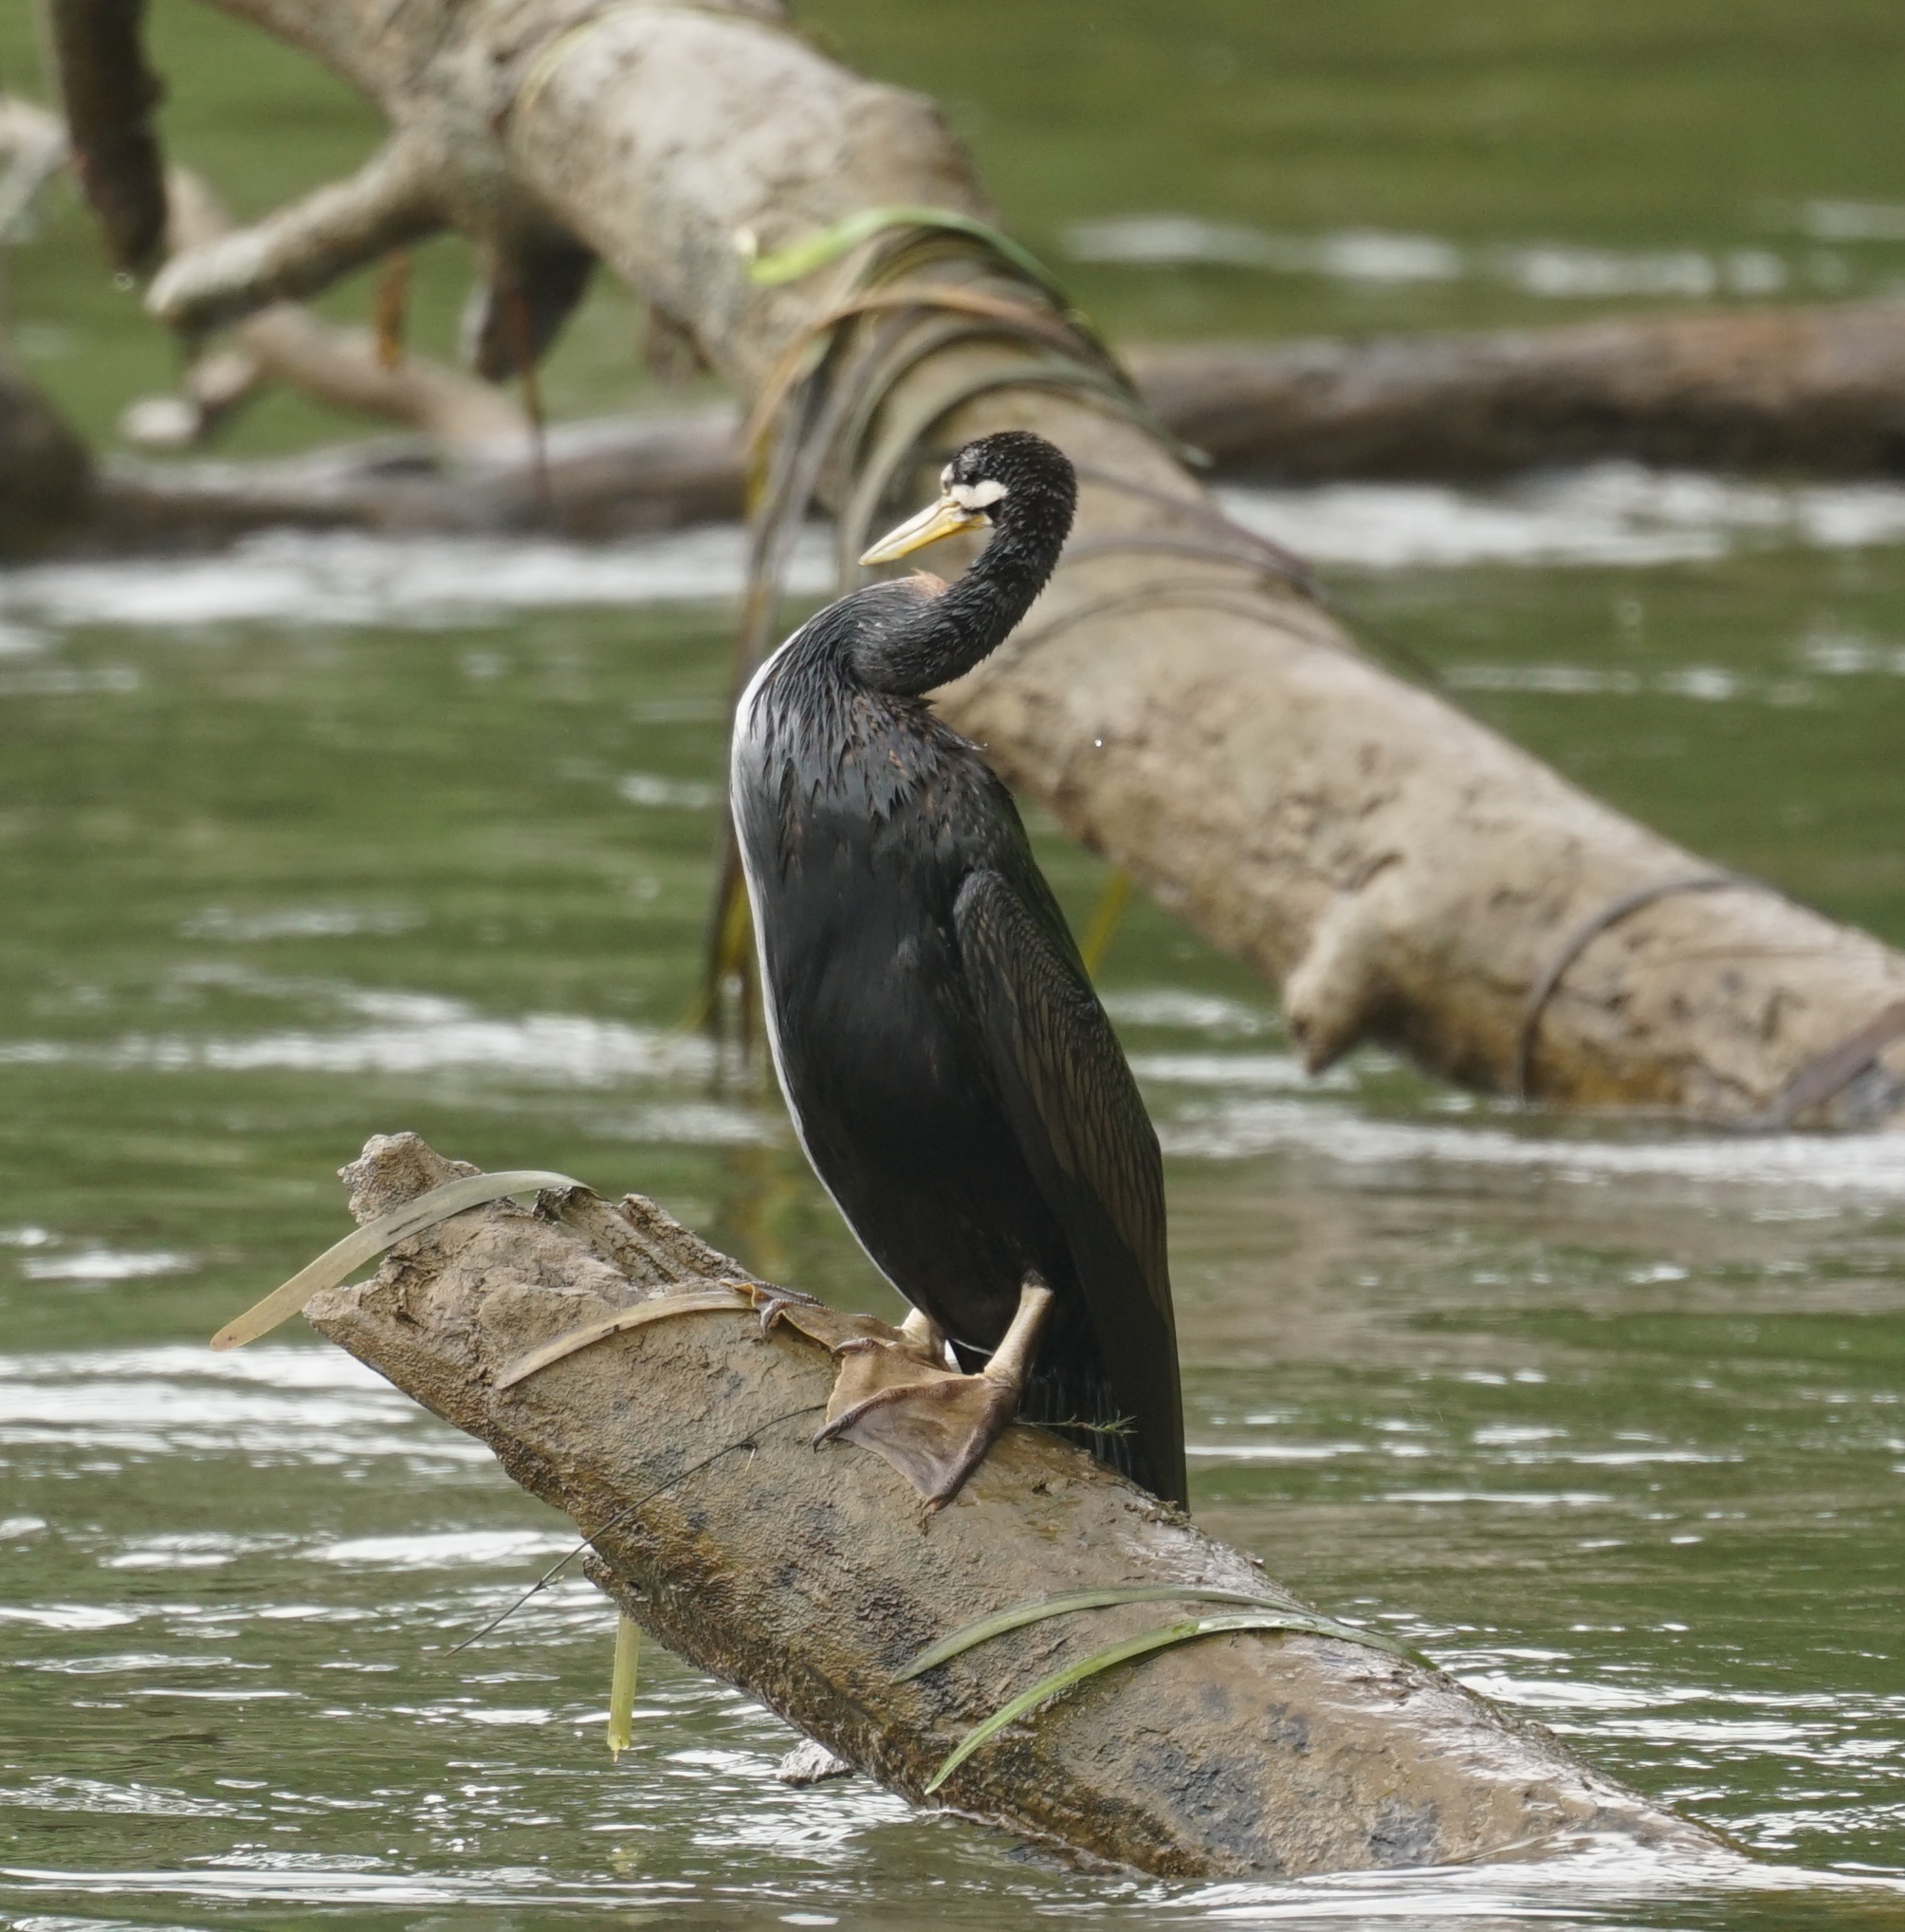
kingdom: Animalia
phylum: Chordata
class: Aves
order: Suliformes
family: Anhingidae
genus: Anhinga
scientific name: Anhinga novaehollandiae
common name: Australasian darter
